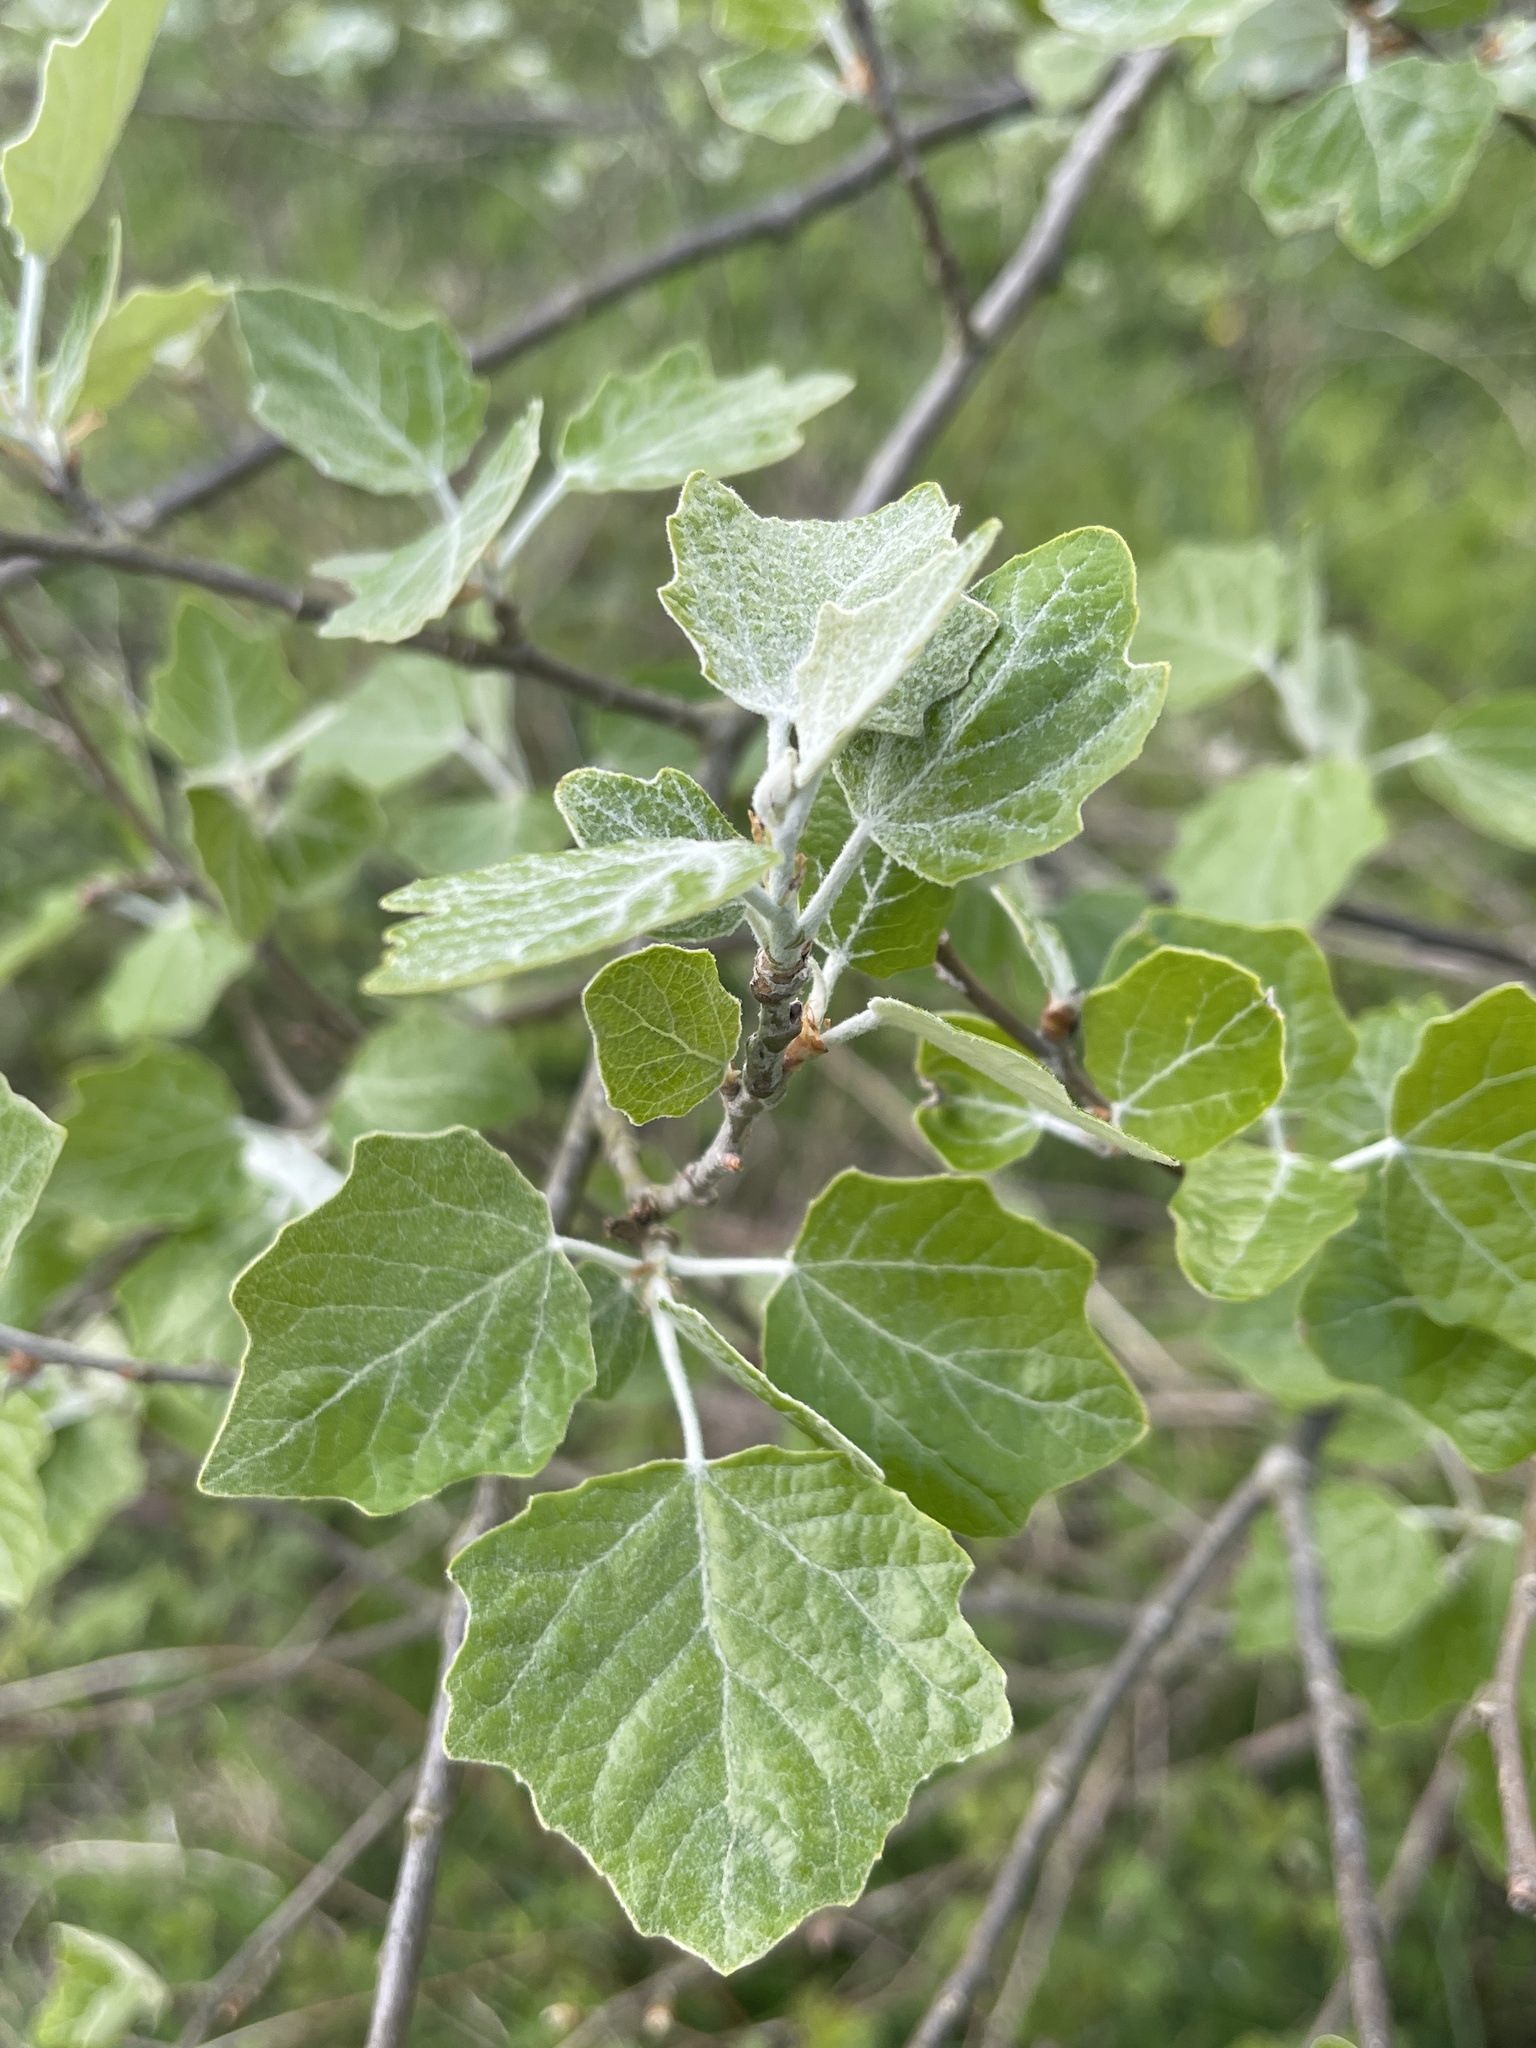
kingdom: Plantae
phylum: Tracheophyta
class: Magnoliopsida
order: Malpighiales
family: Salicaceae
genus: Populus
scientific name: Populus alba
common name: White poplar
